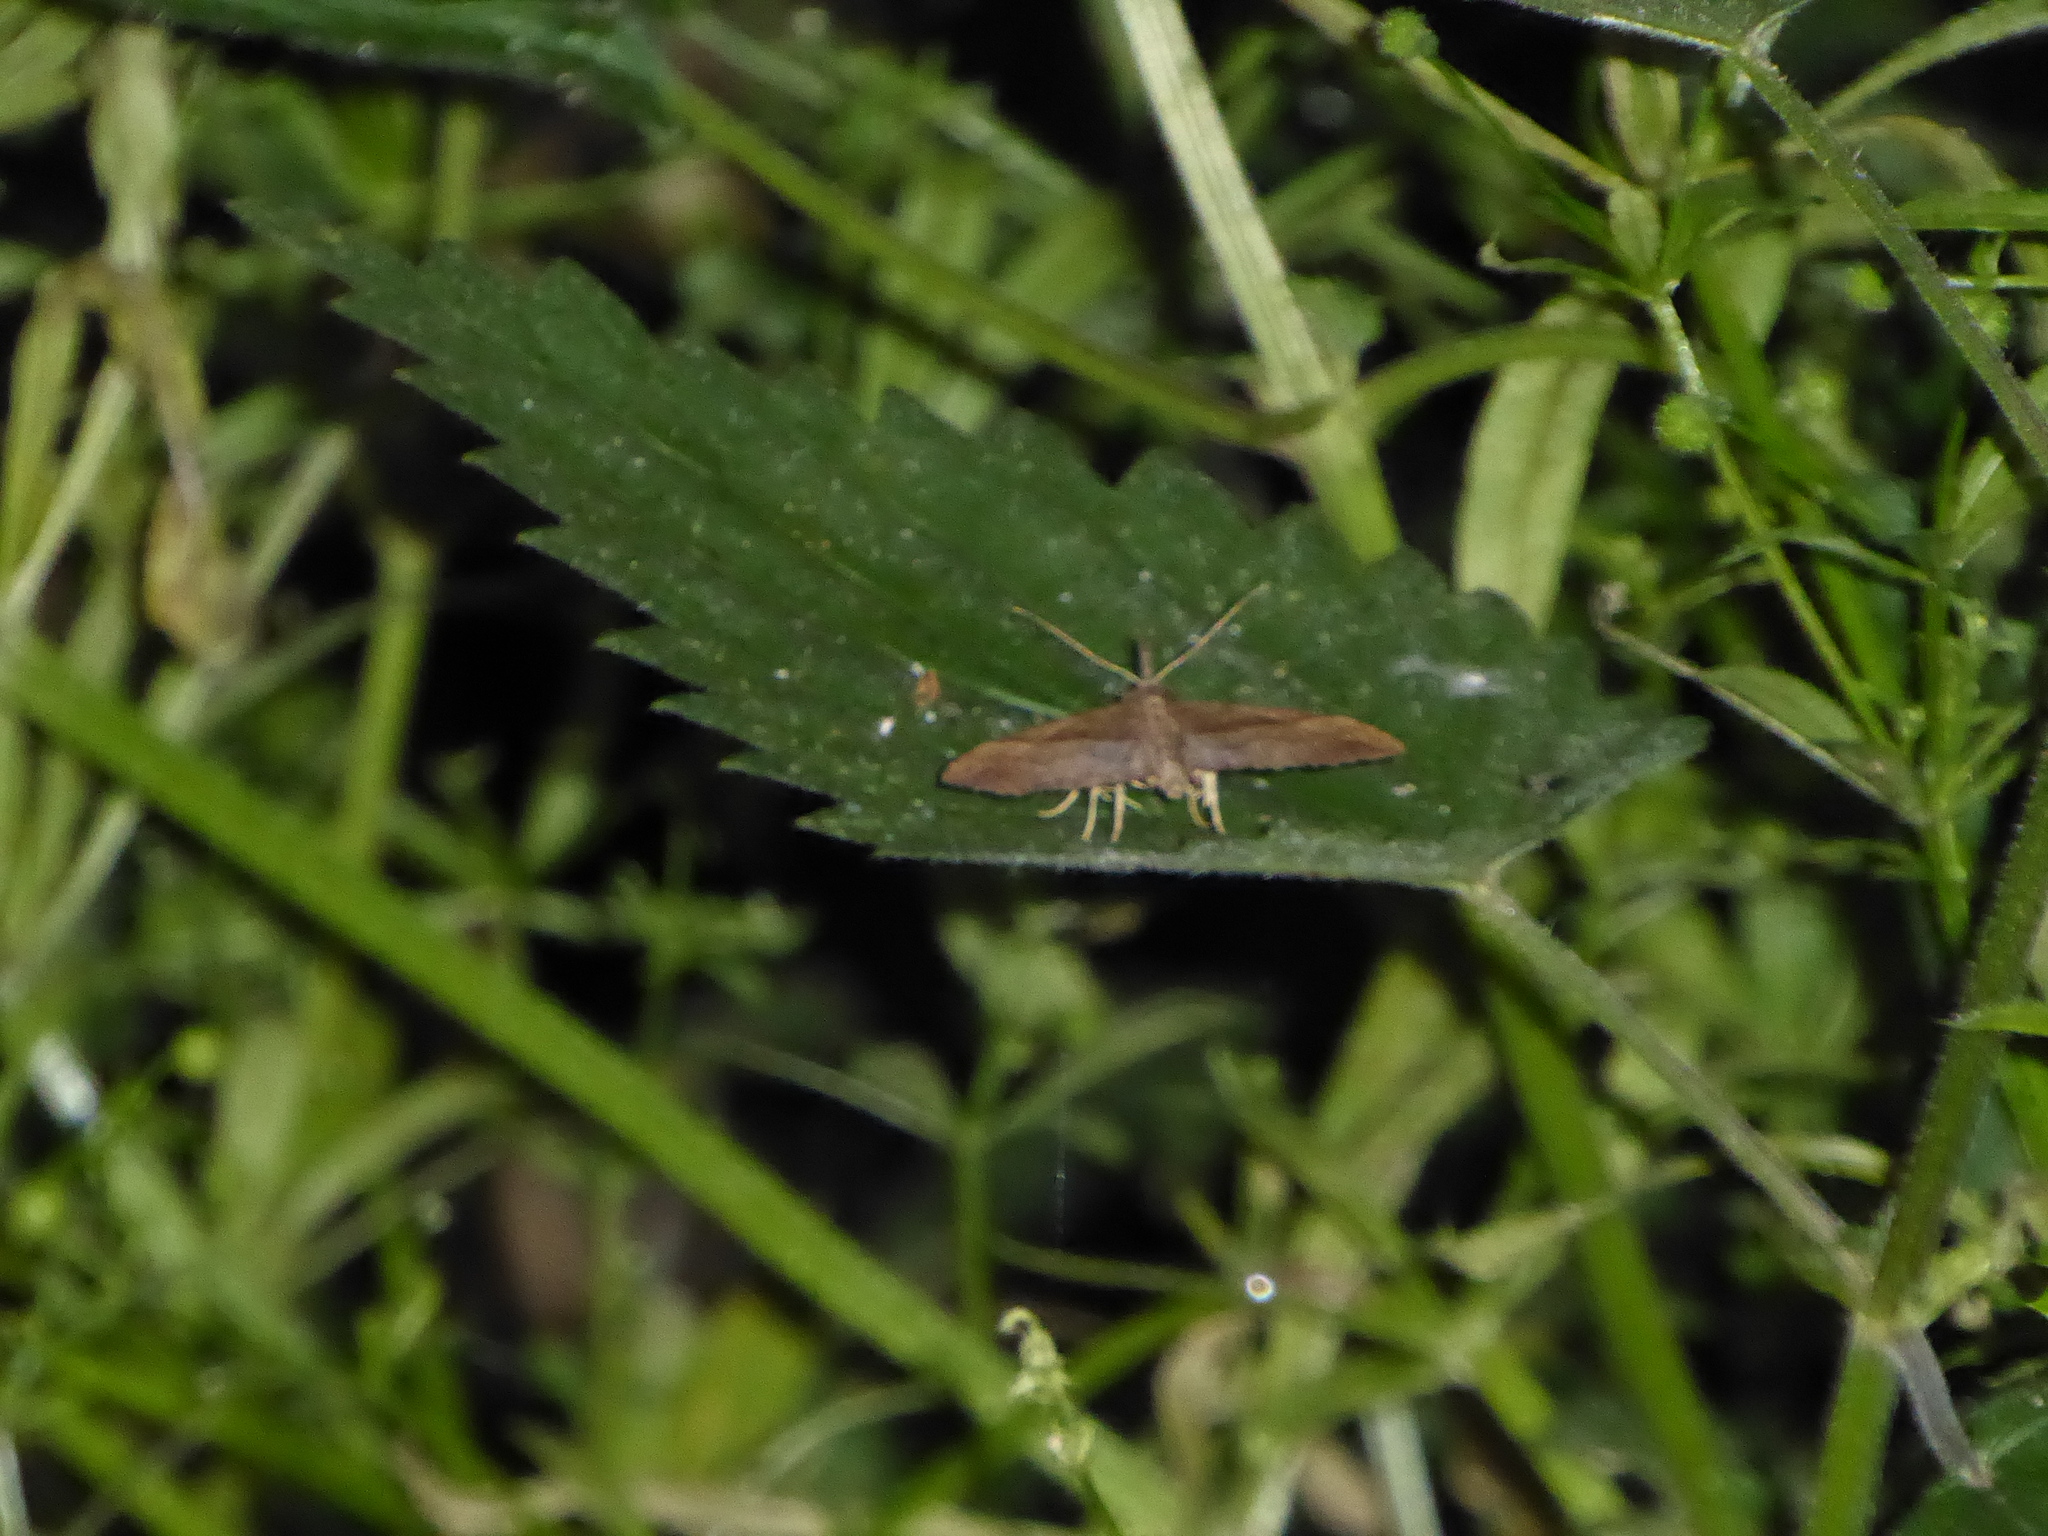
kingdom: Animalia
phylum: Arthropoda
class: Insecta
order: Lepidoptera
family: Erebidae
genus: Hypena
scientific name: Hypena proboscidalis
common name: Snout
